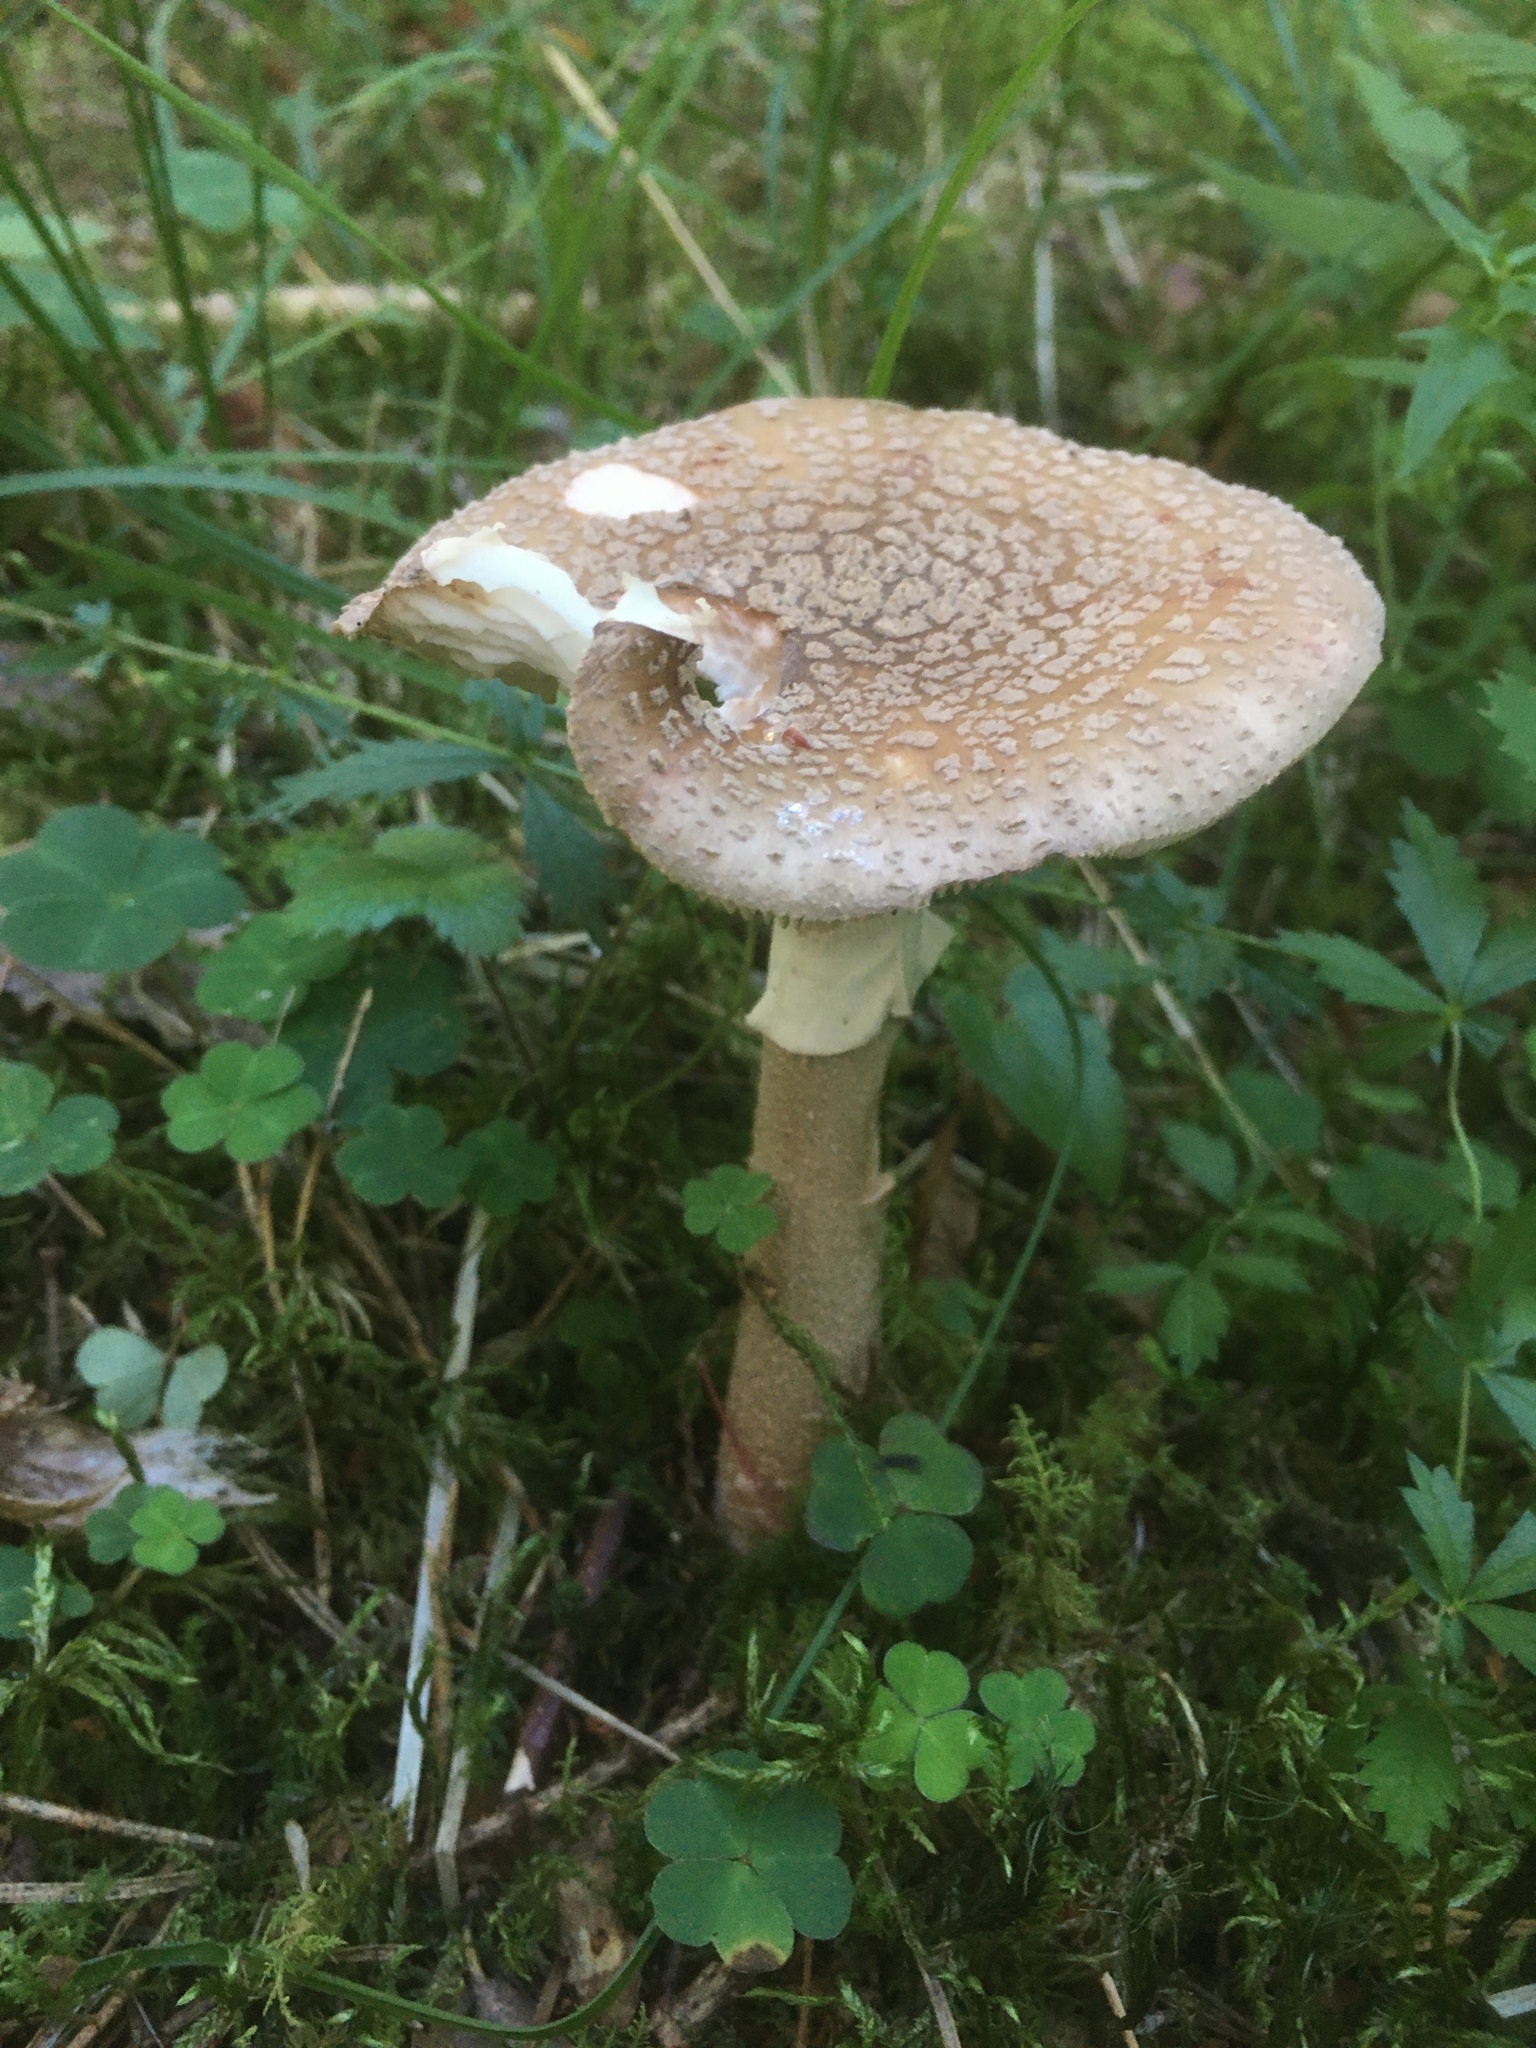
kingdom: Fungi
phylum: Basidiomycota
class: Agaricomycetes
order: Agaricales
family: Amanitaceae
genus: Amanita
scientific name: Amanita rubescens
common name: Blusher
